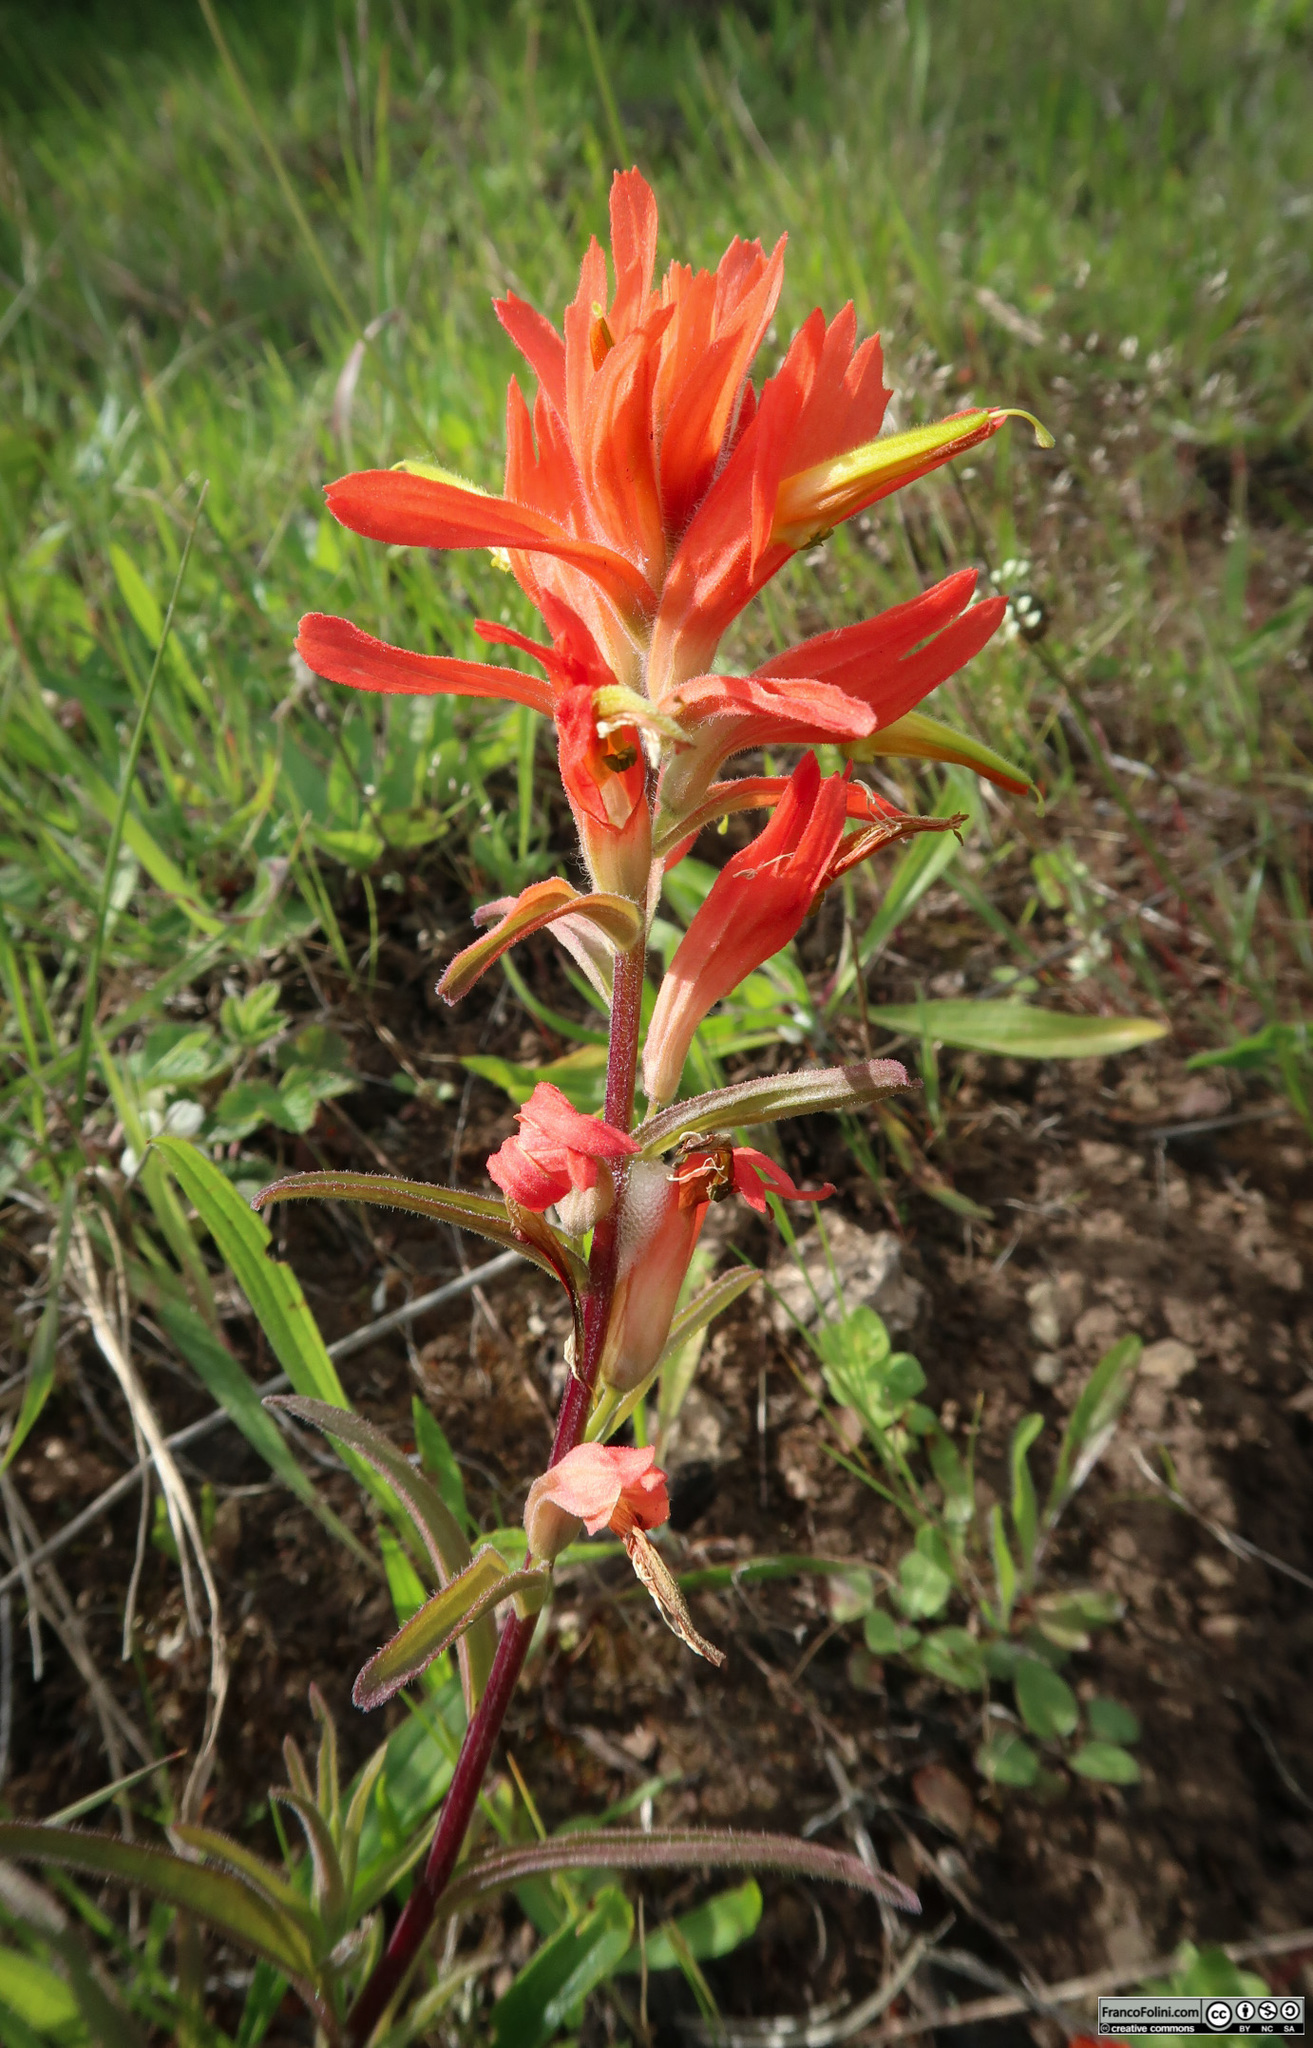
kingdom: Plantae
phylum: Tracheophyta
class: Magnoliopsida
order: Lamiales
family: Orobanchaceae
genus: Castilleja
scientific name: Castilleja subinclusa
